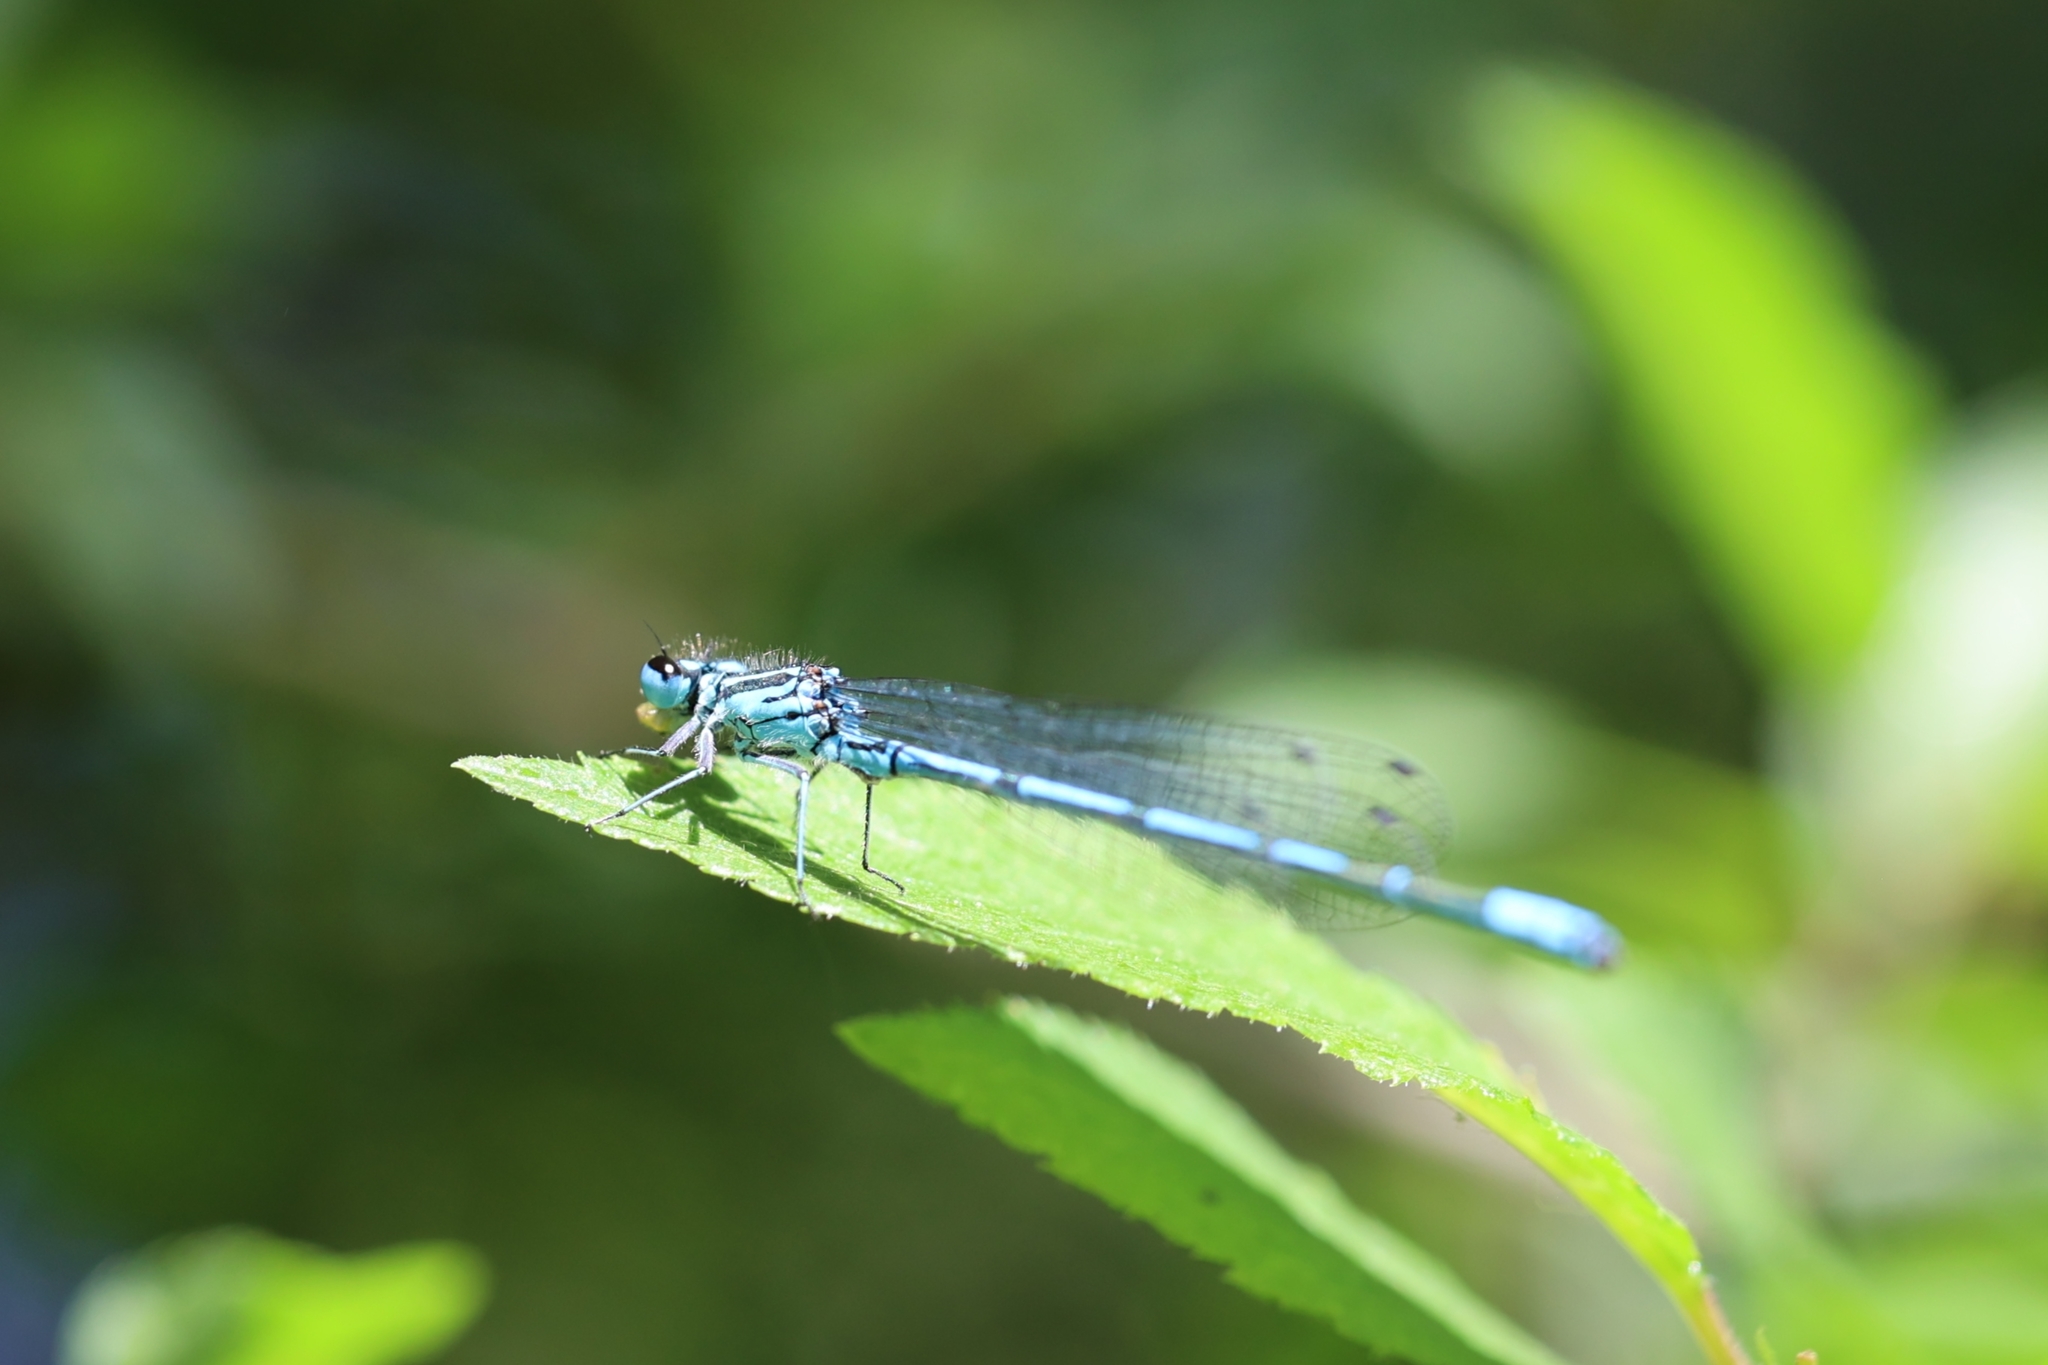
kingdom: Animalia
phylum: Arthropoda
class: Insecta
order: Odonata
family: Coenagrionidae
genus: Coenagrion
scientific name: Coenagrion puella
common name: Azure damselfly
